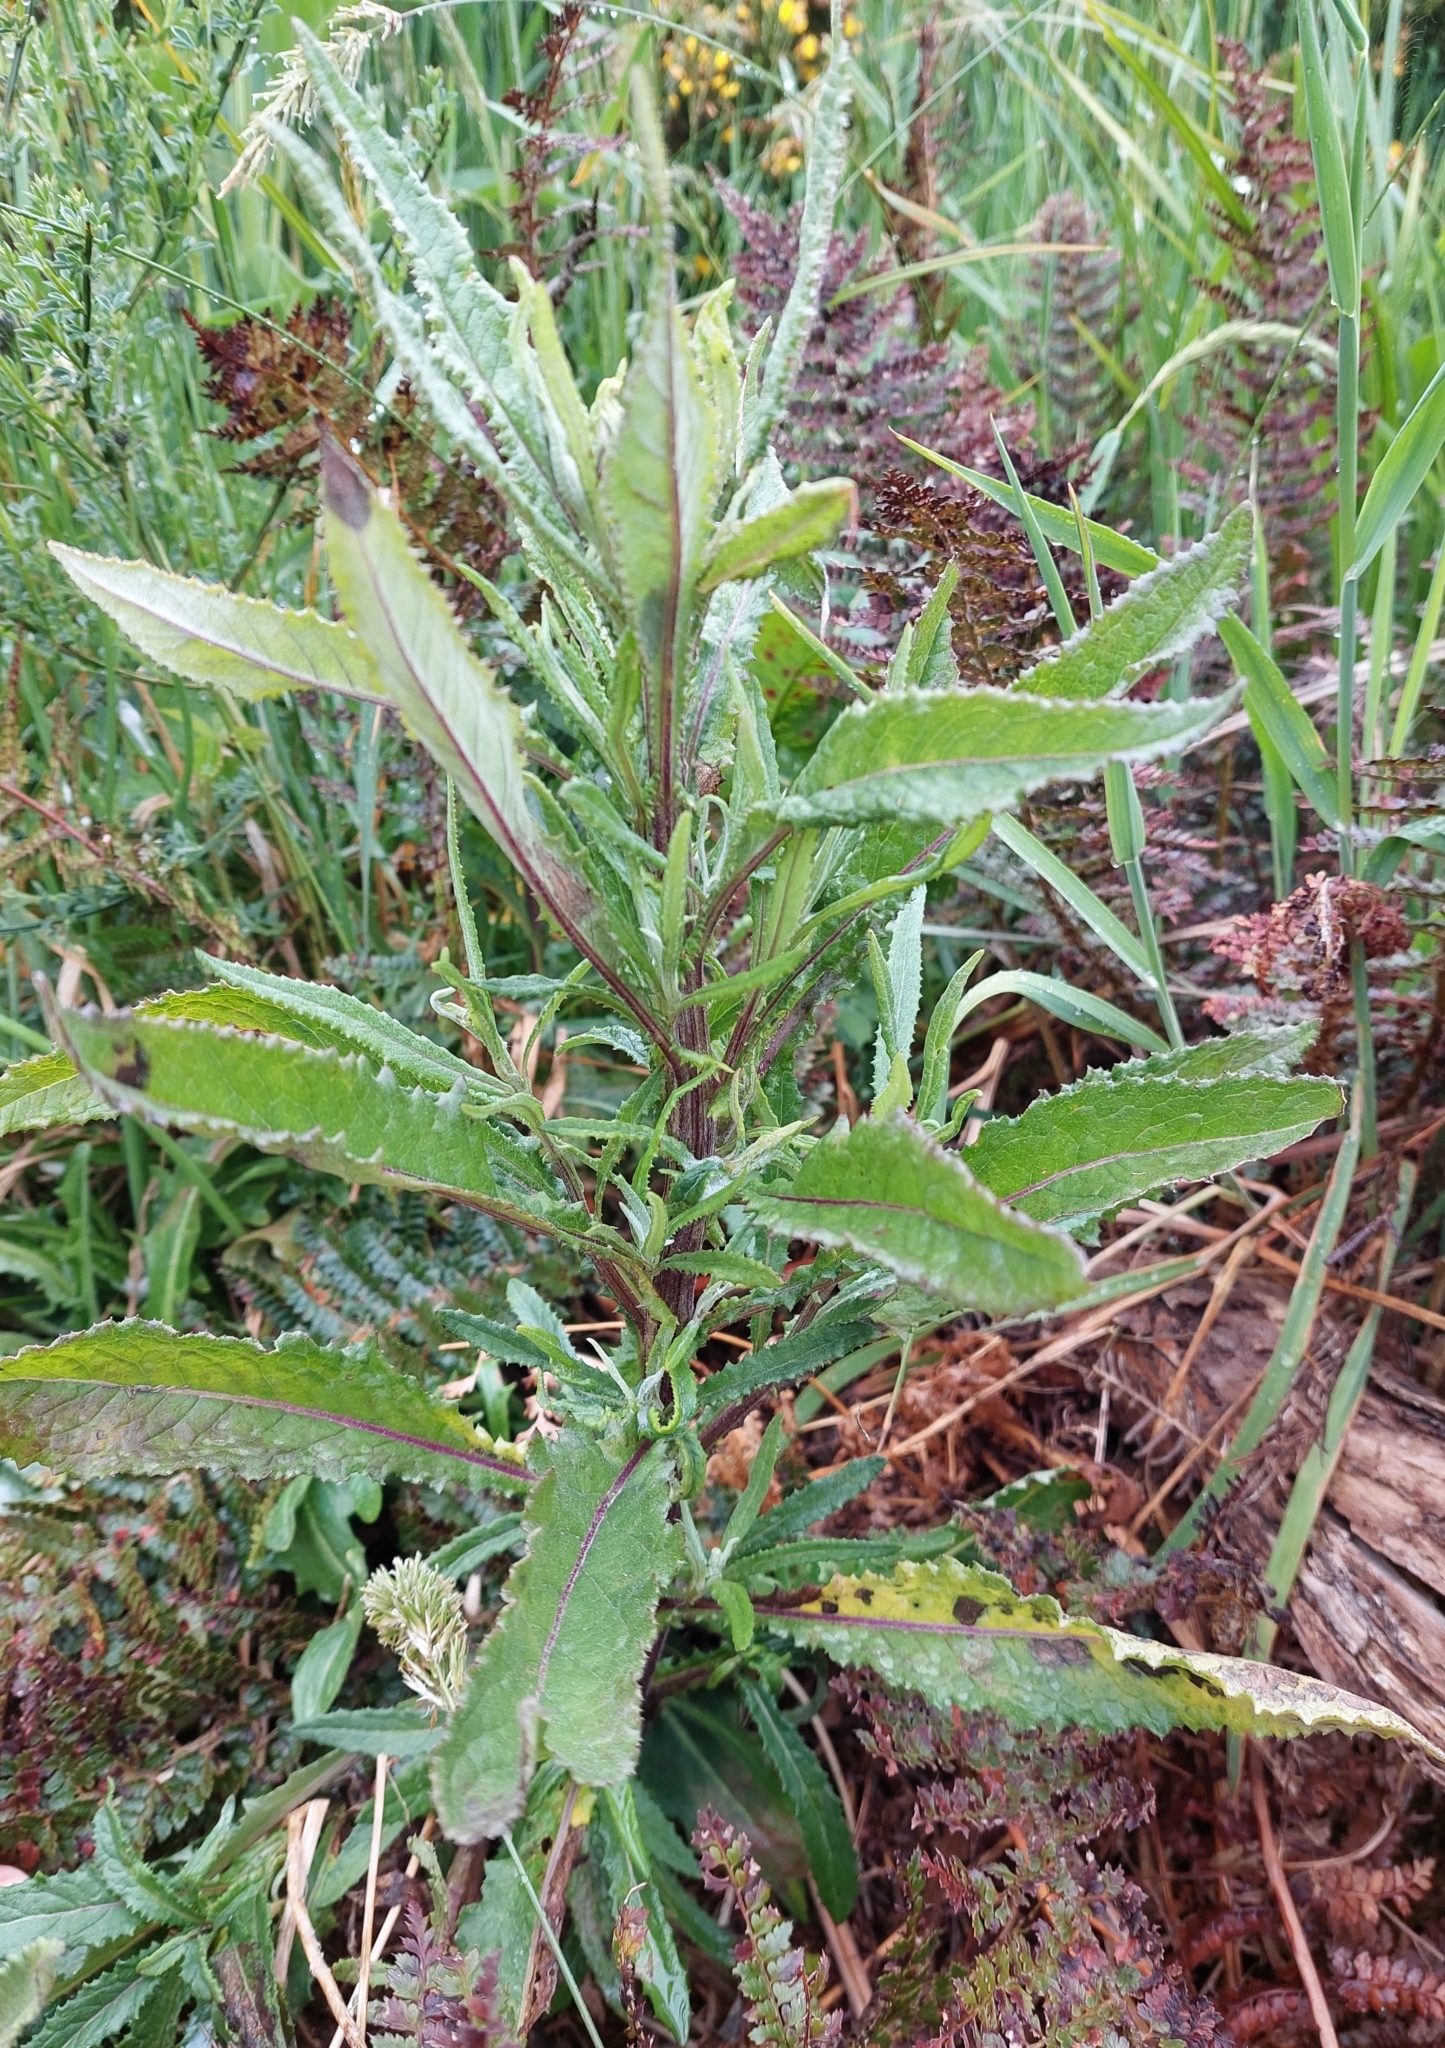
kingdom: Plantae
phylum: Tracheophyta
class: Magnoliopsida
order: Asterales
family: Asteraceae
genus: Senecio
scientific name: Senecio minimus
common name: Toothed fireweed
